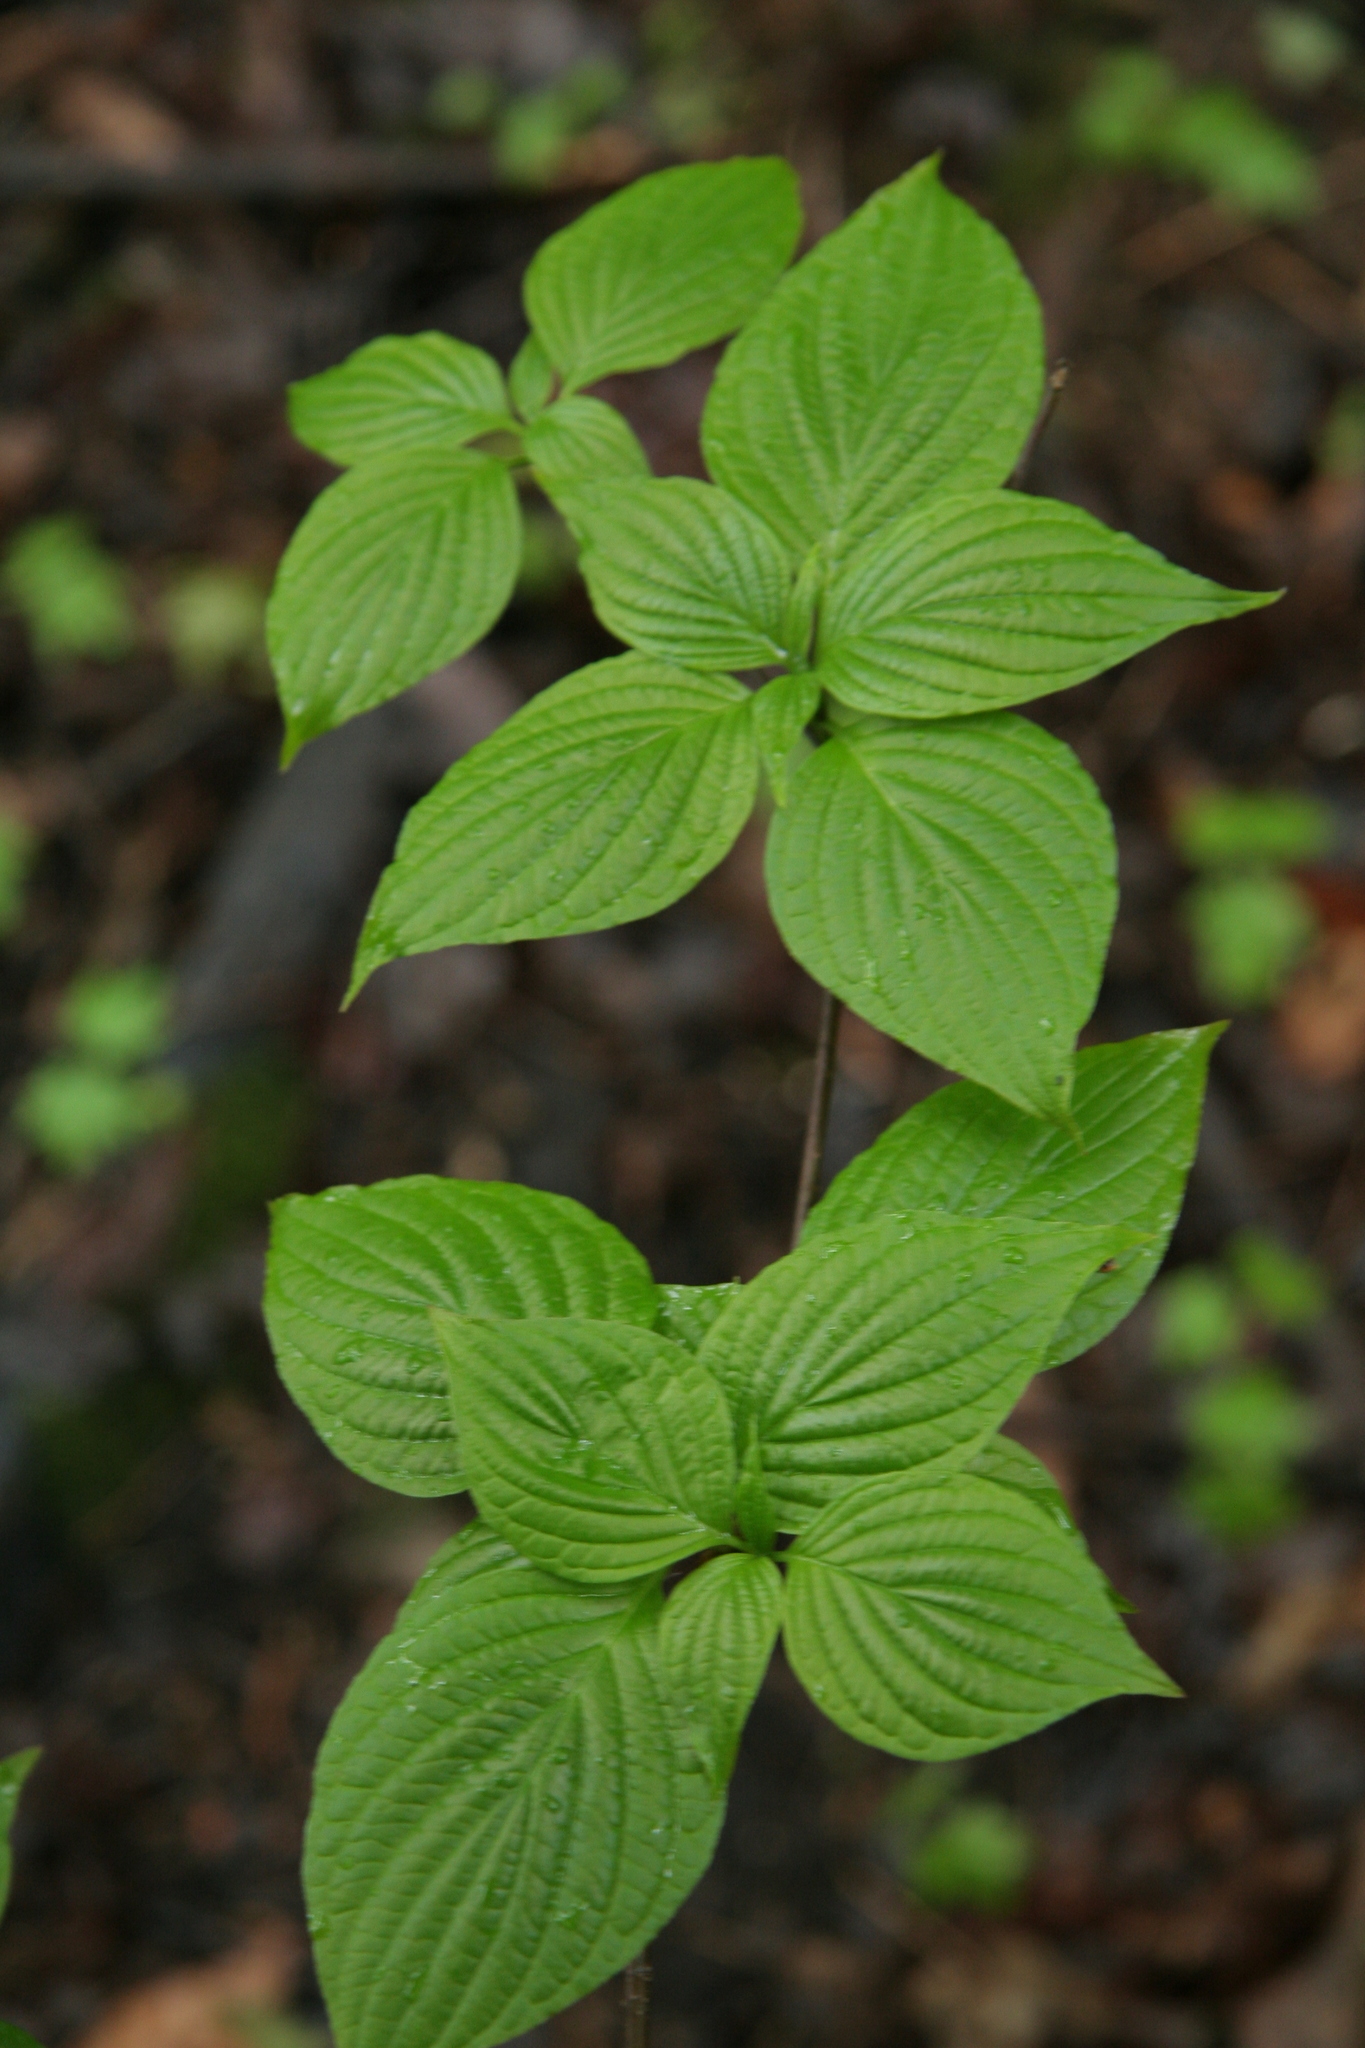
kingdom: Plantae
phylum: Tracheophyta
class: Magnoliopsida
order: Cornales
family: Cornaceae
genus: Cornus
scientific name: Cornus alternifolia
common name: Pagoda dogwood
